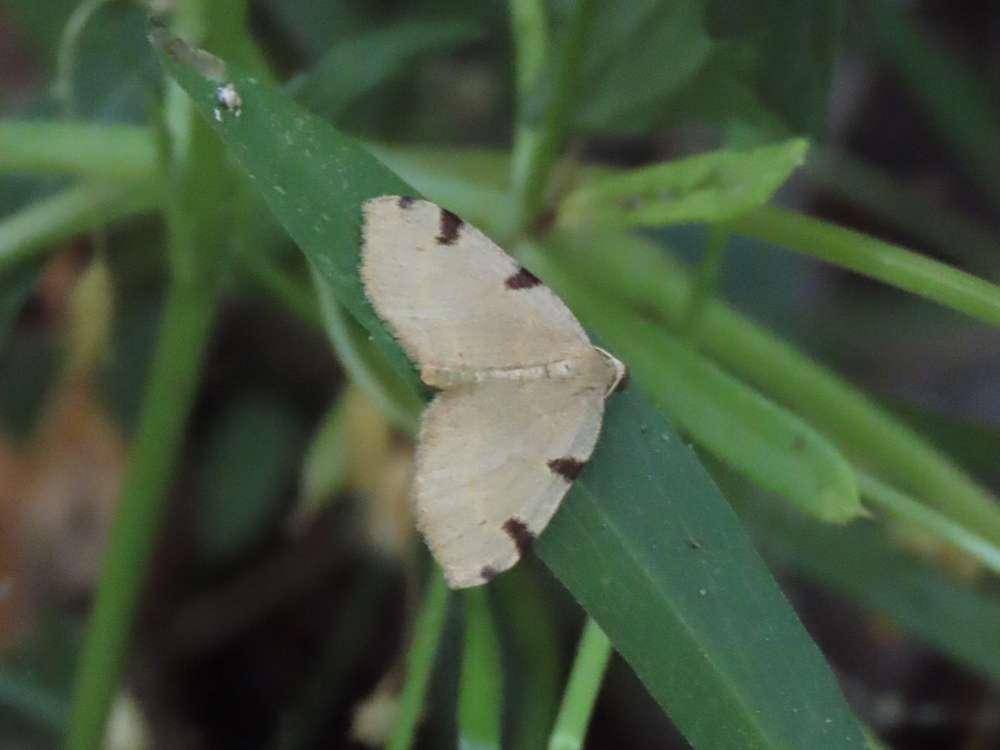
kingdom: Animalia
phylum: Arthropoda
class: Insecta
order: Lepidoptera
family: Geometridae
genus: Heterophleps
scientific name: Heterophleps triguttaria
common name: Three-spotted fillip
